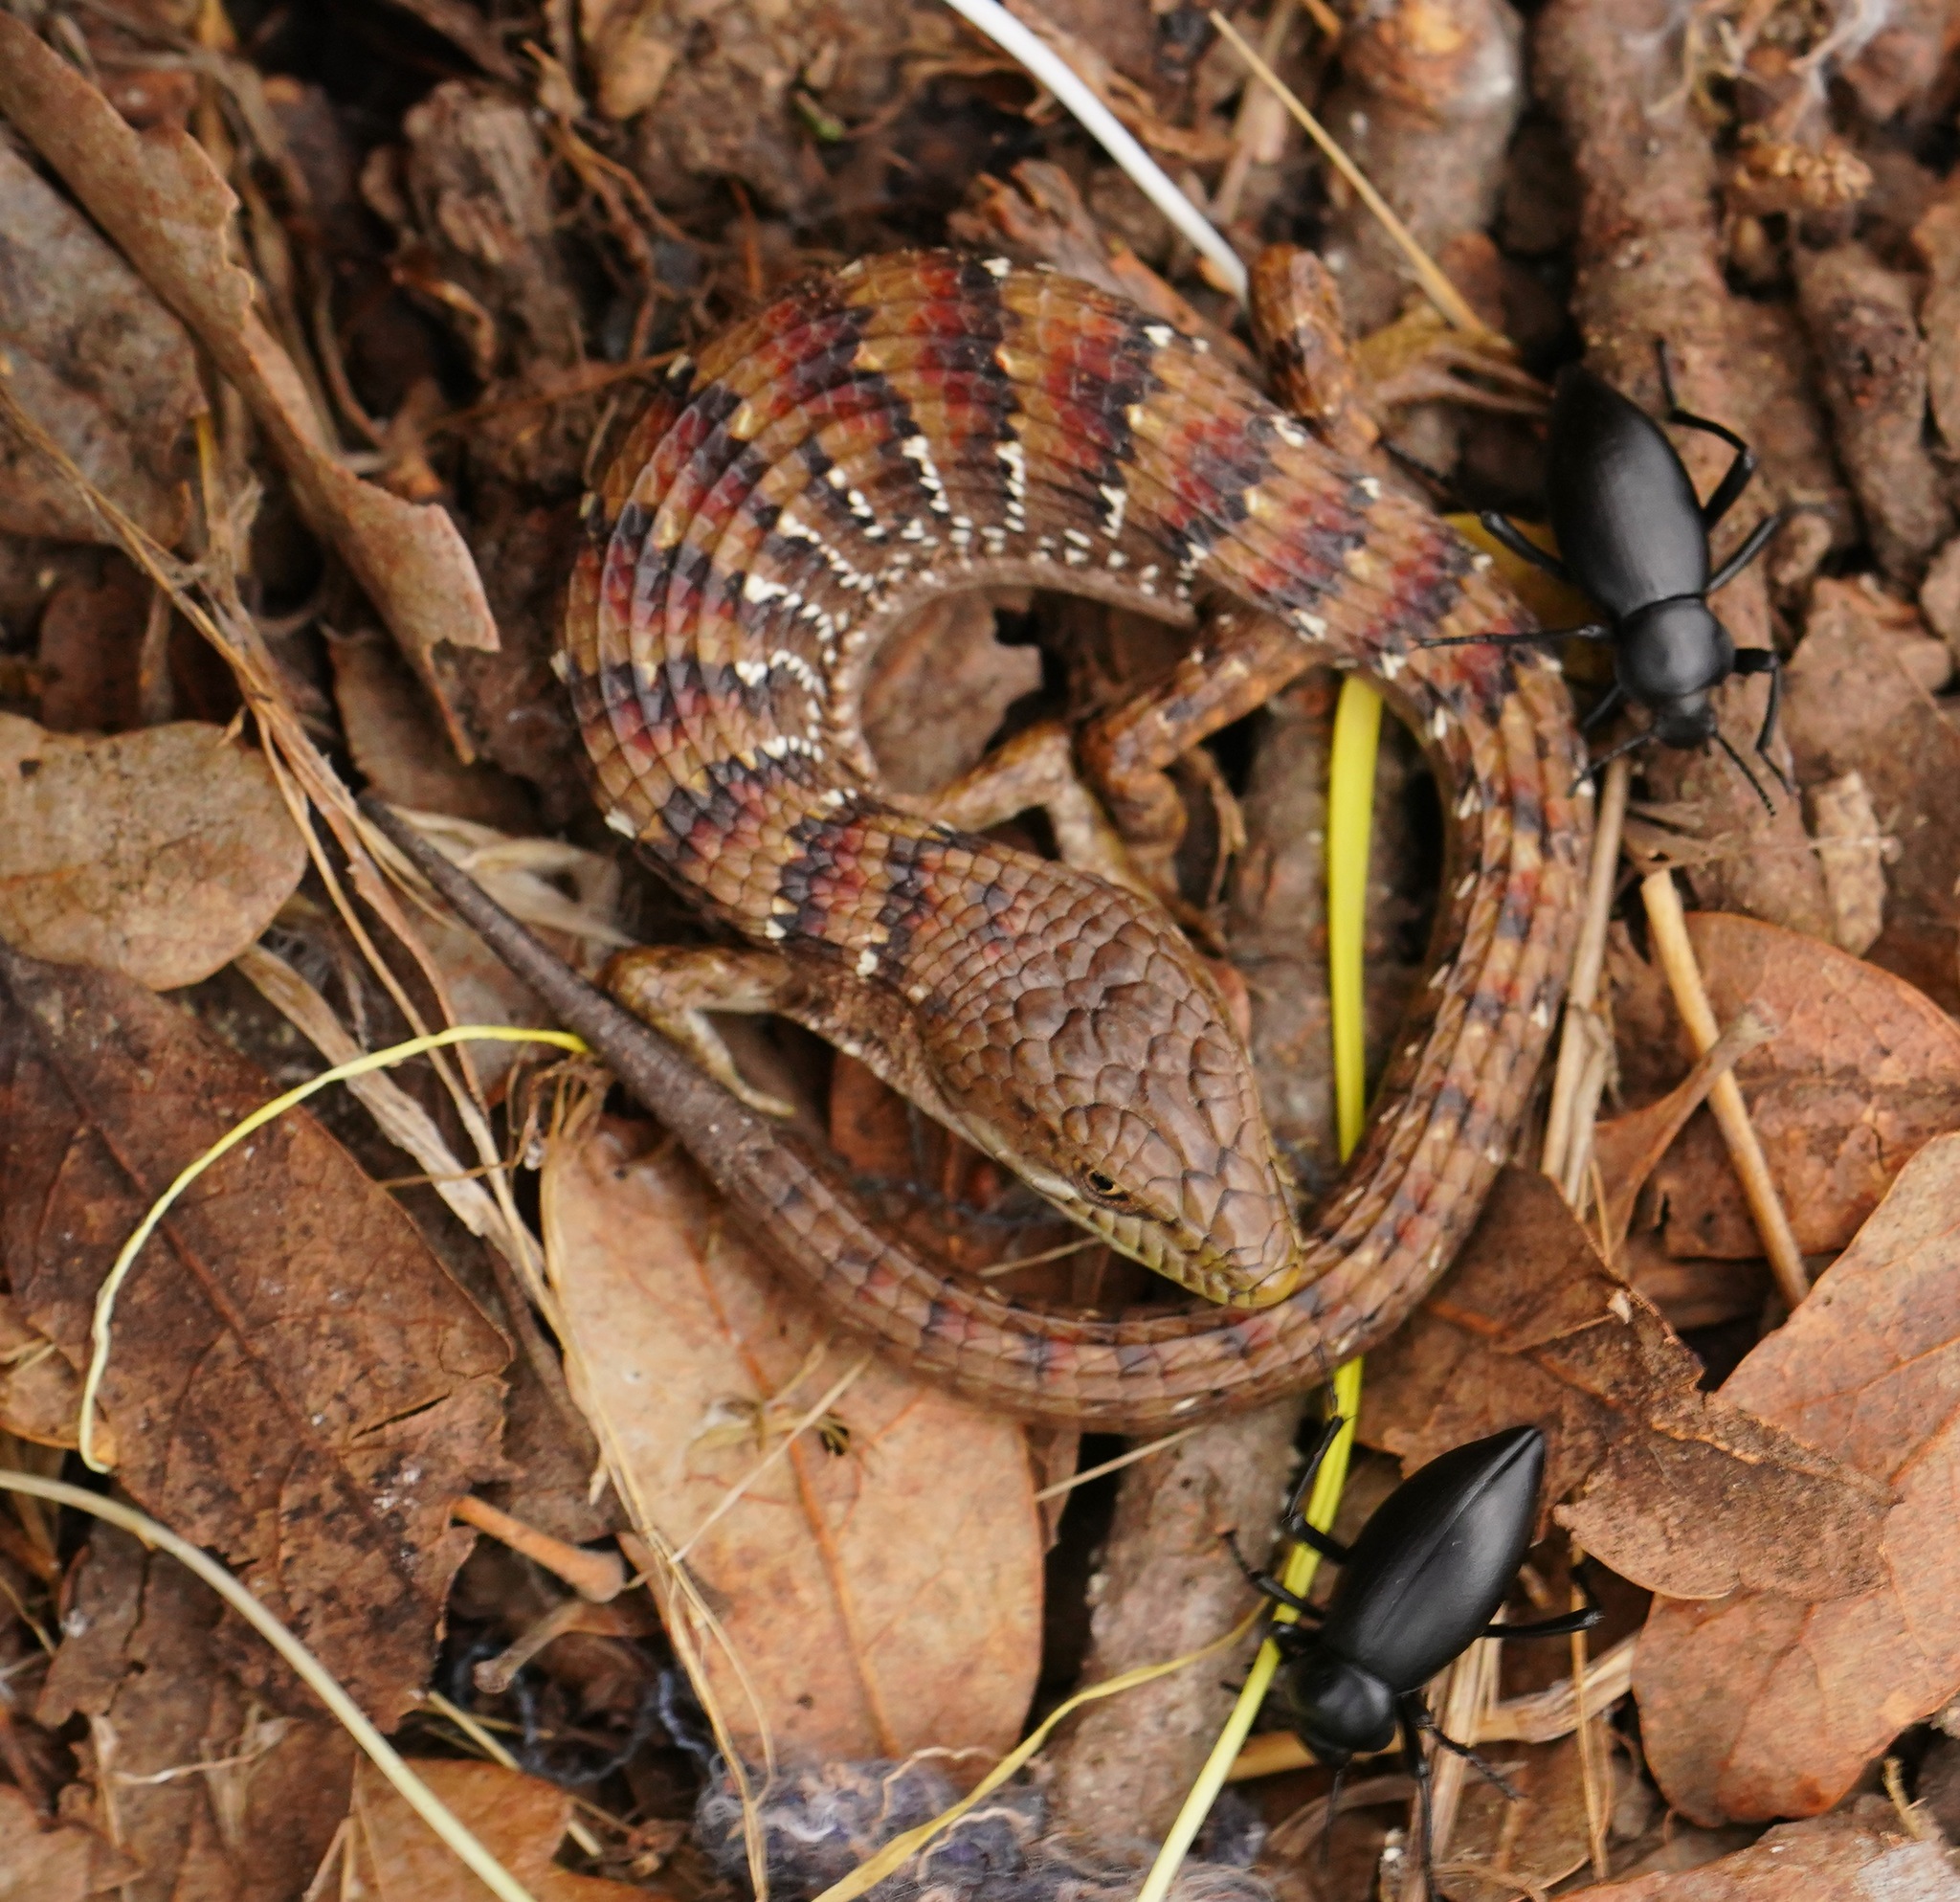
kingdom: Animalia
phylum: Chordata
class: Squamata
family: Anguidae
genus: Elgaria
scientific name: Elgaria multicarinata
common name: Southern alligator lizard
